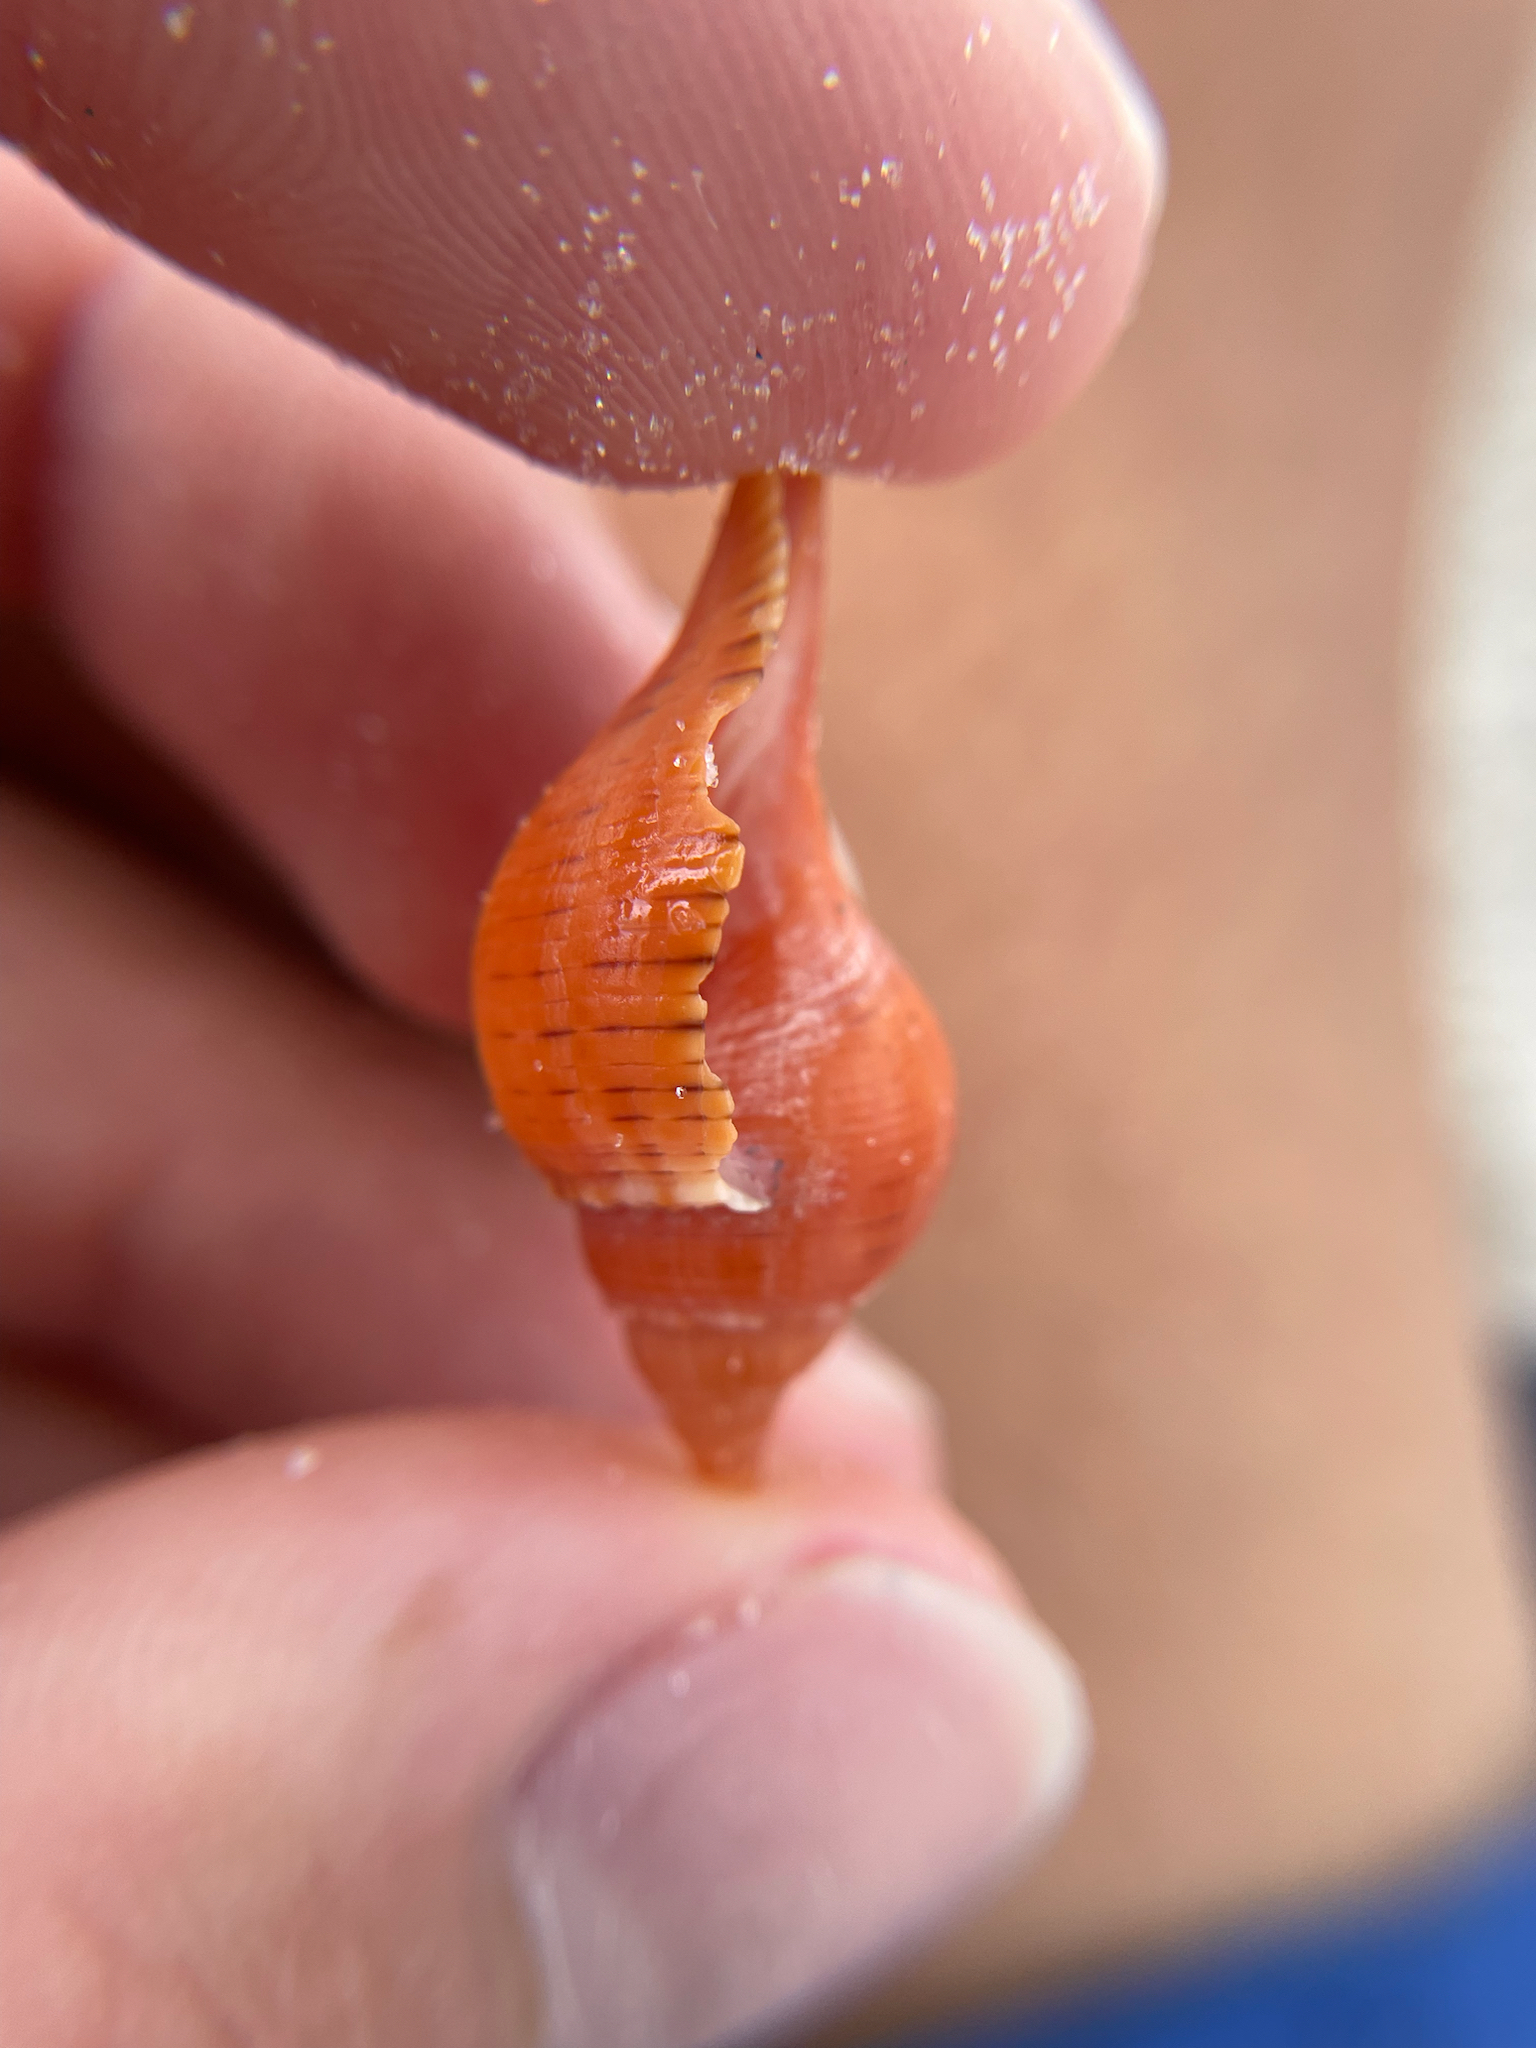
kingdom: Animalia
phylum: Mollusca
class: Gastropoda
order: Neogastropoda
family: Fasciolariidae
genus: Fasciolaria
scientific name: Fasciolaria tulipa
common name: True tulip
